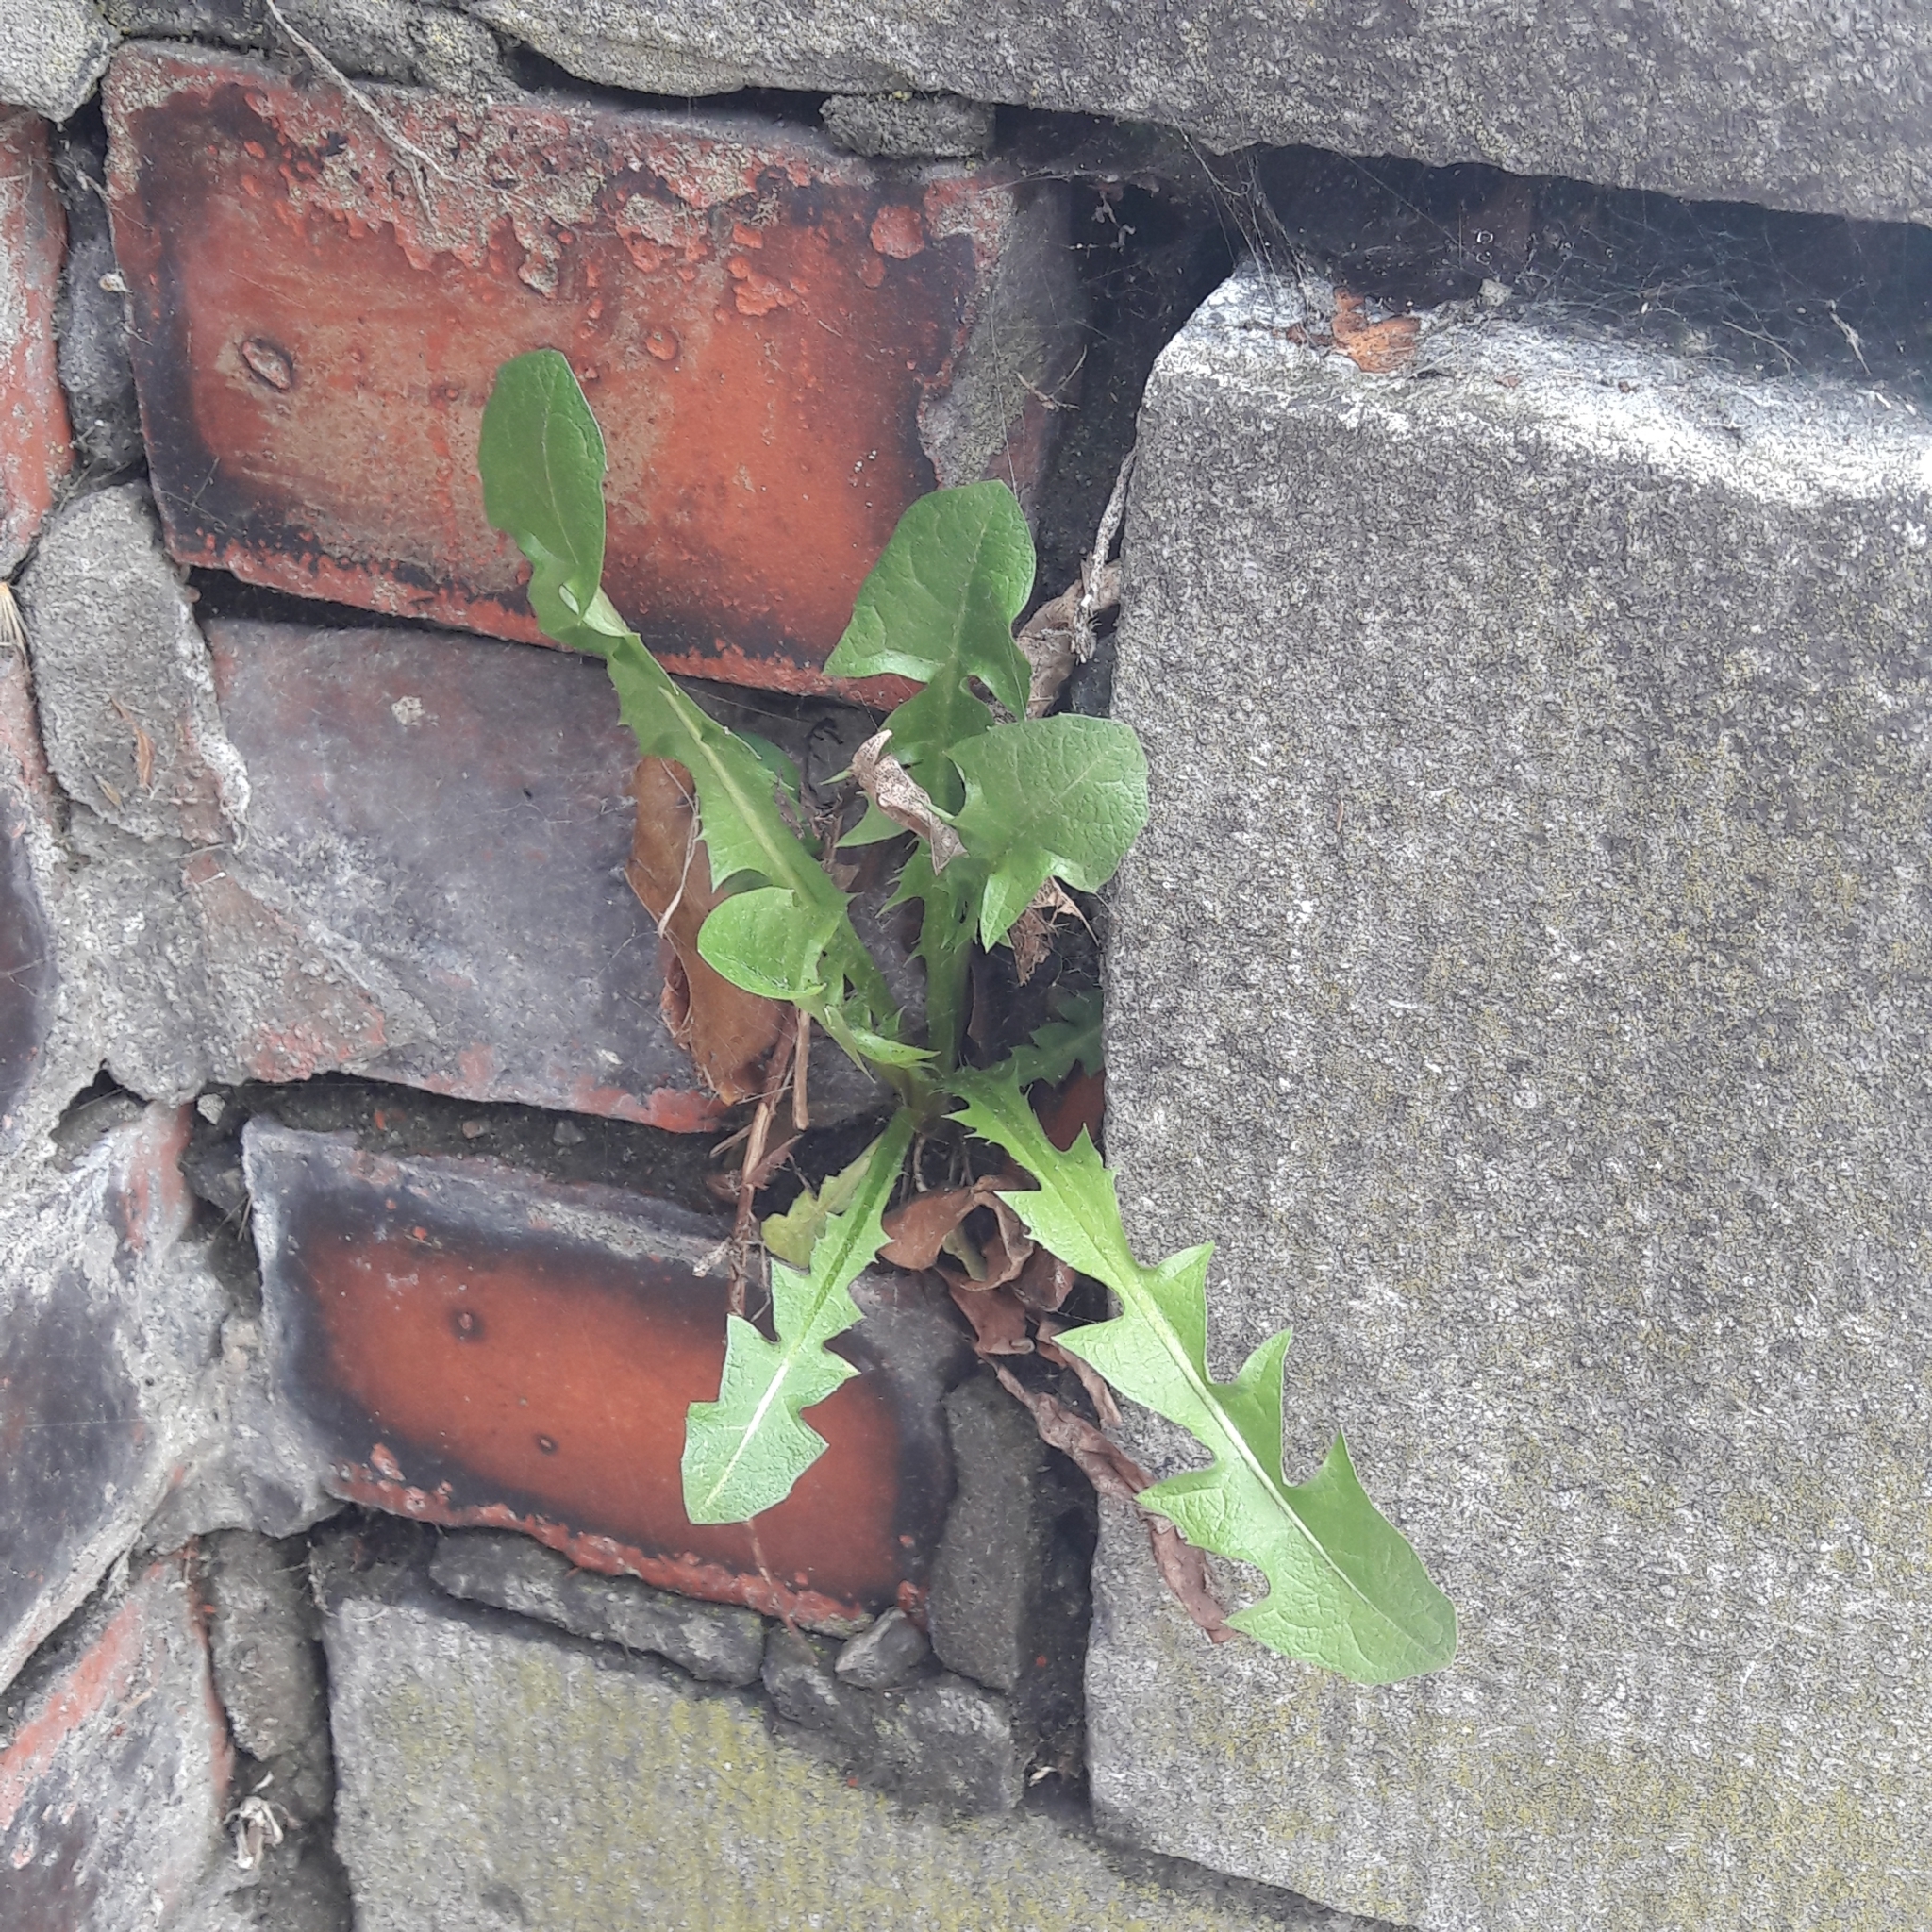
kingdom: Plantae
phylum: Tracheophyta
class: Magnoliopsida
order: Asterales
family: Asteraceae
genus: Taraxacum
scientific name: Taraxacum officinale
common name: Common dandelion
